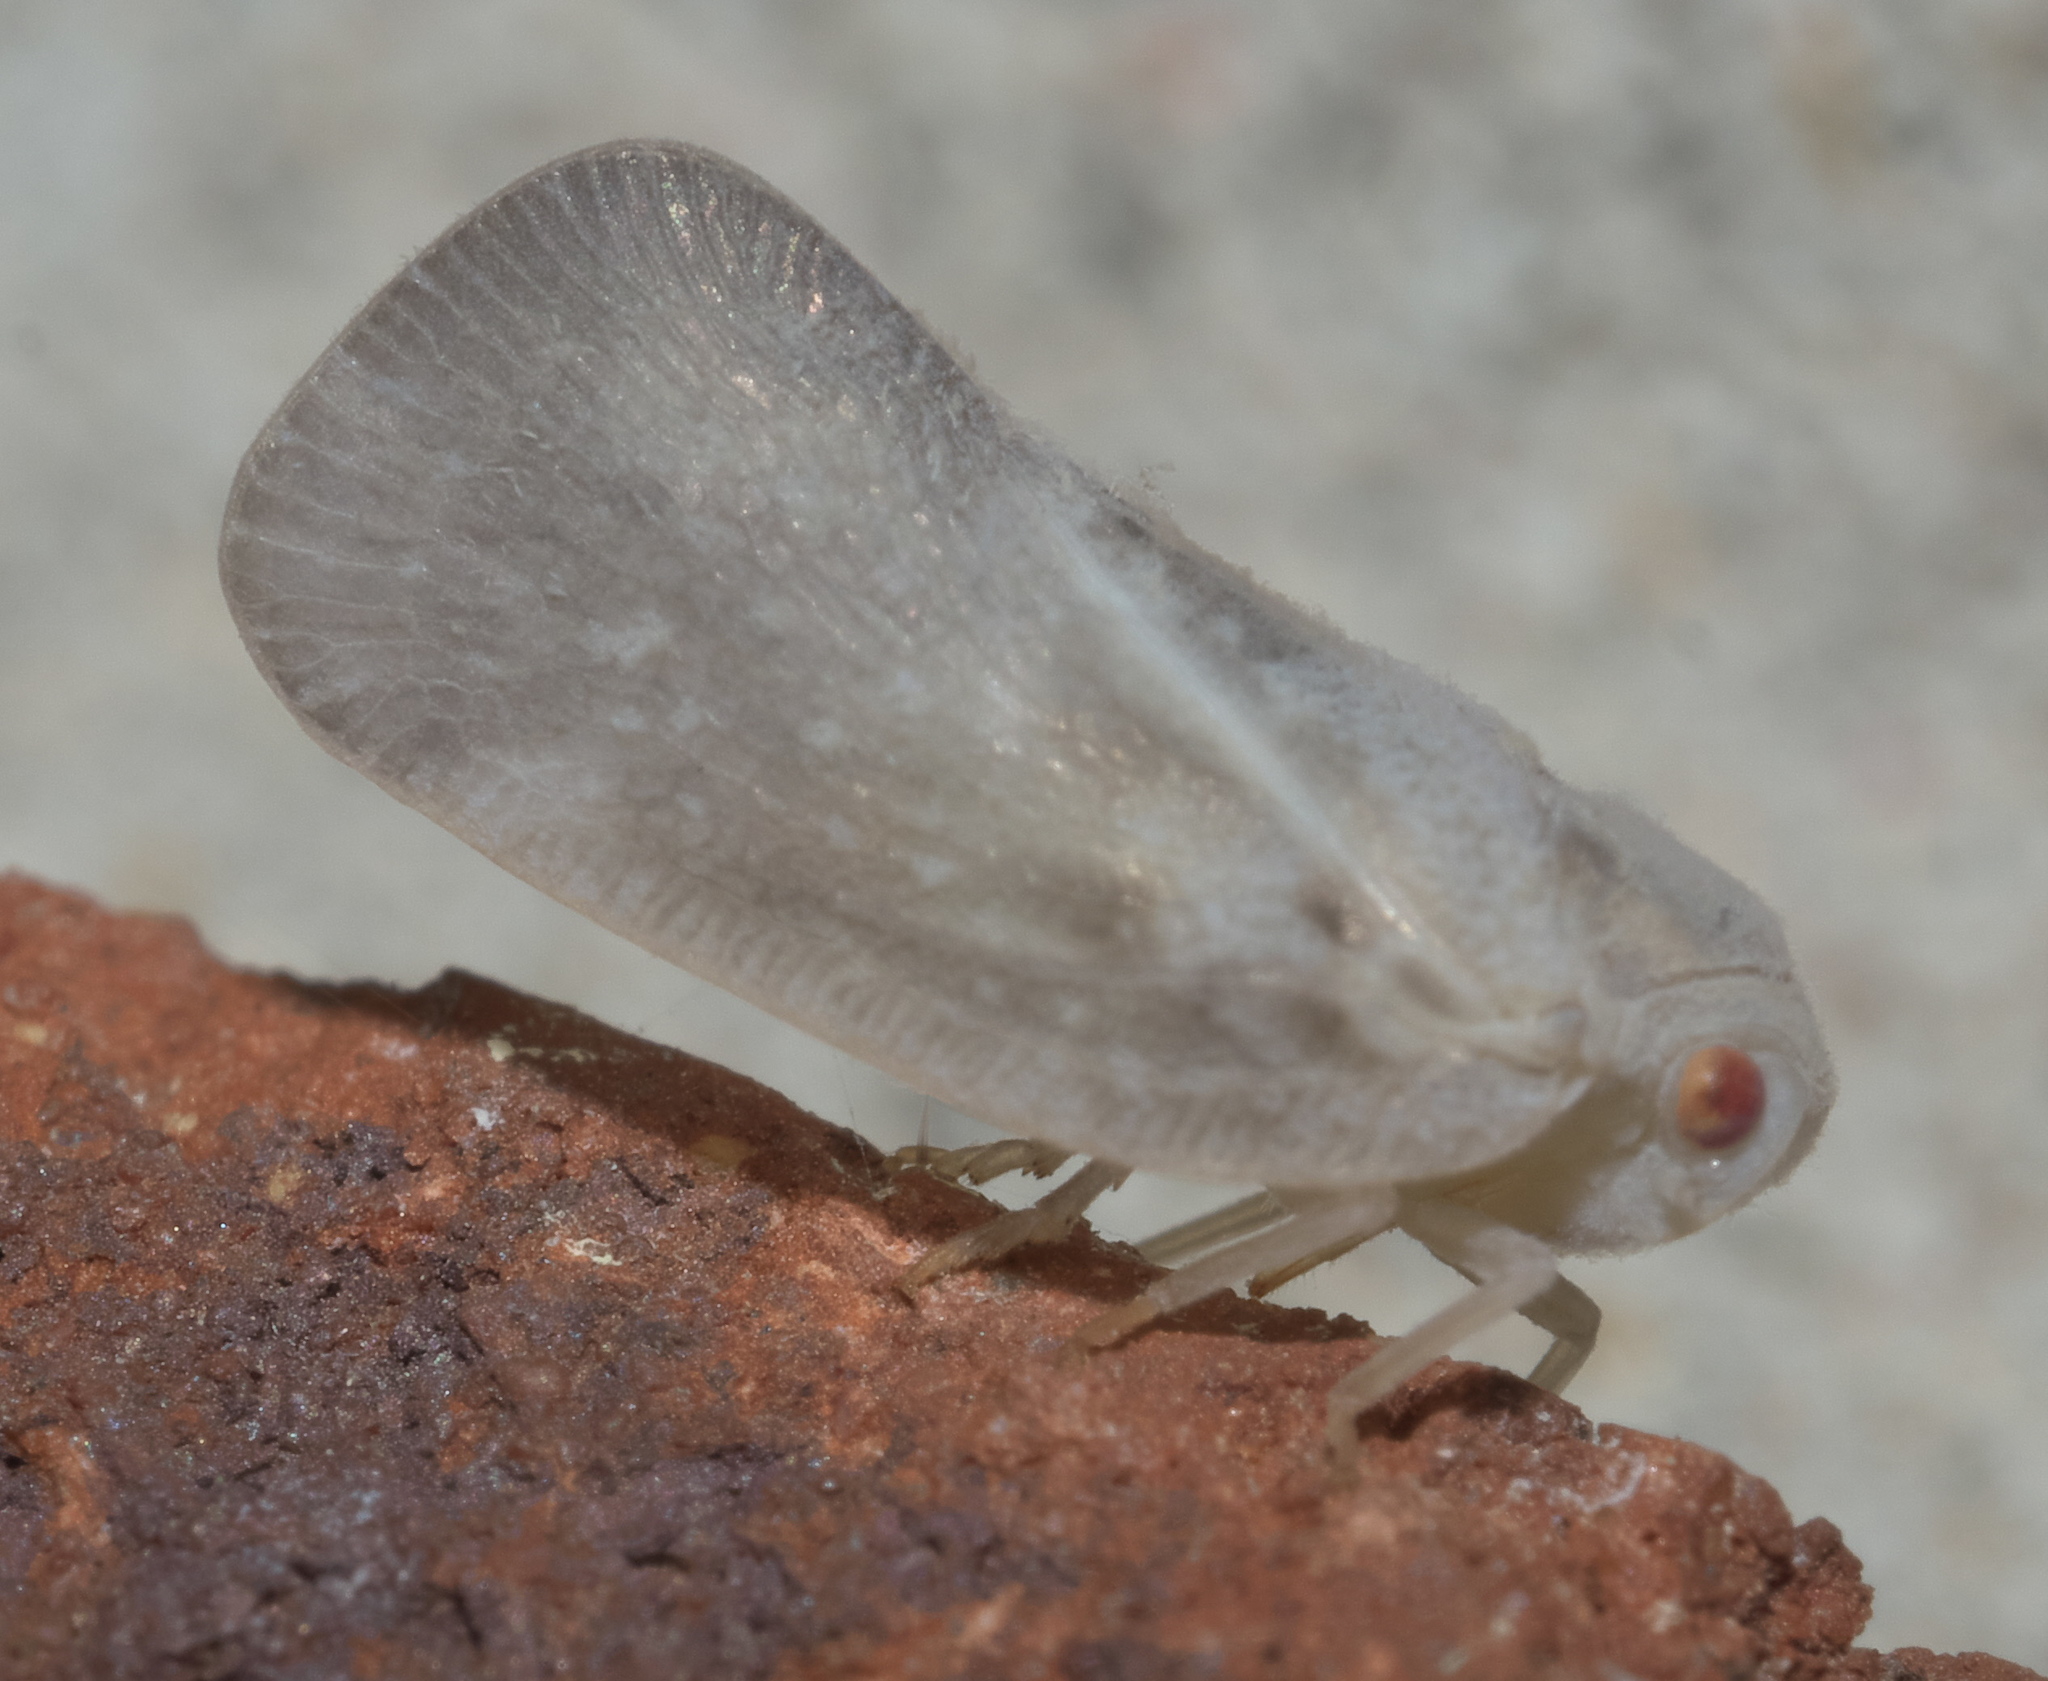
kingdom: Animalia
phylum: Arthropoda
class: Insecta
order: Hemiptera
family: Flatidae
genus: Metcalfa
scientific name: Metcalfa pruinosa
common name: Citrus flatid planthopper
